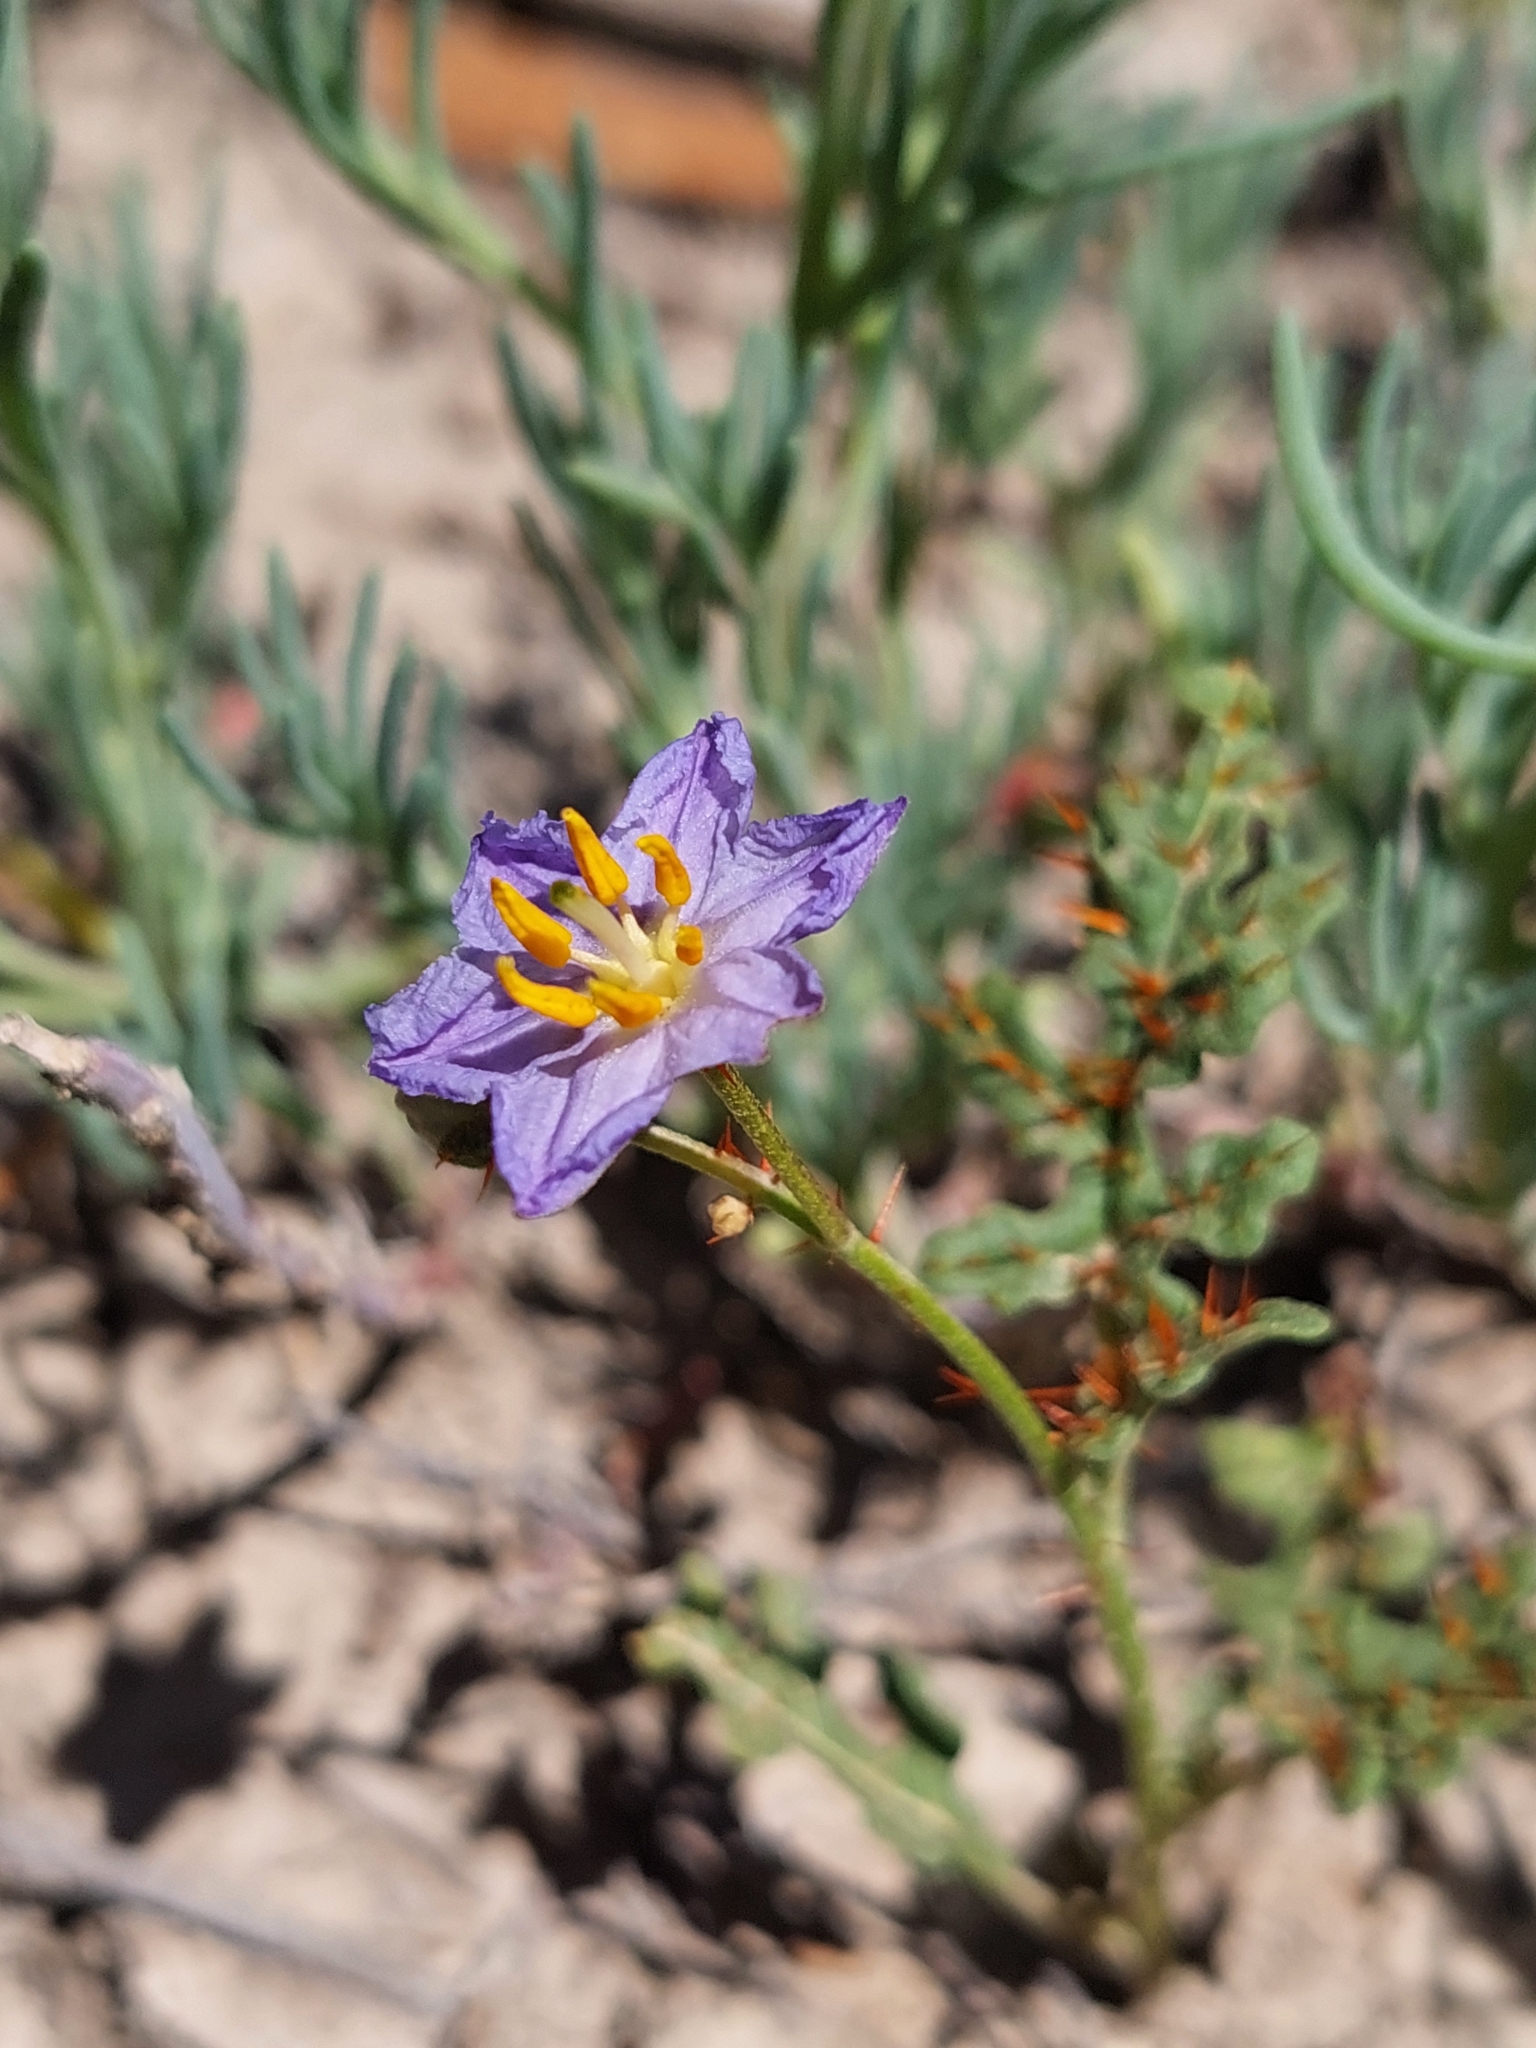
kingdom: Plantae
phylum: Tracheophyta
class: Magnoliopsida
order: Solanales
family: Solanaceae
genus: Solanum
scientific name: Solanum lacunarium
